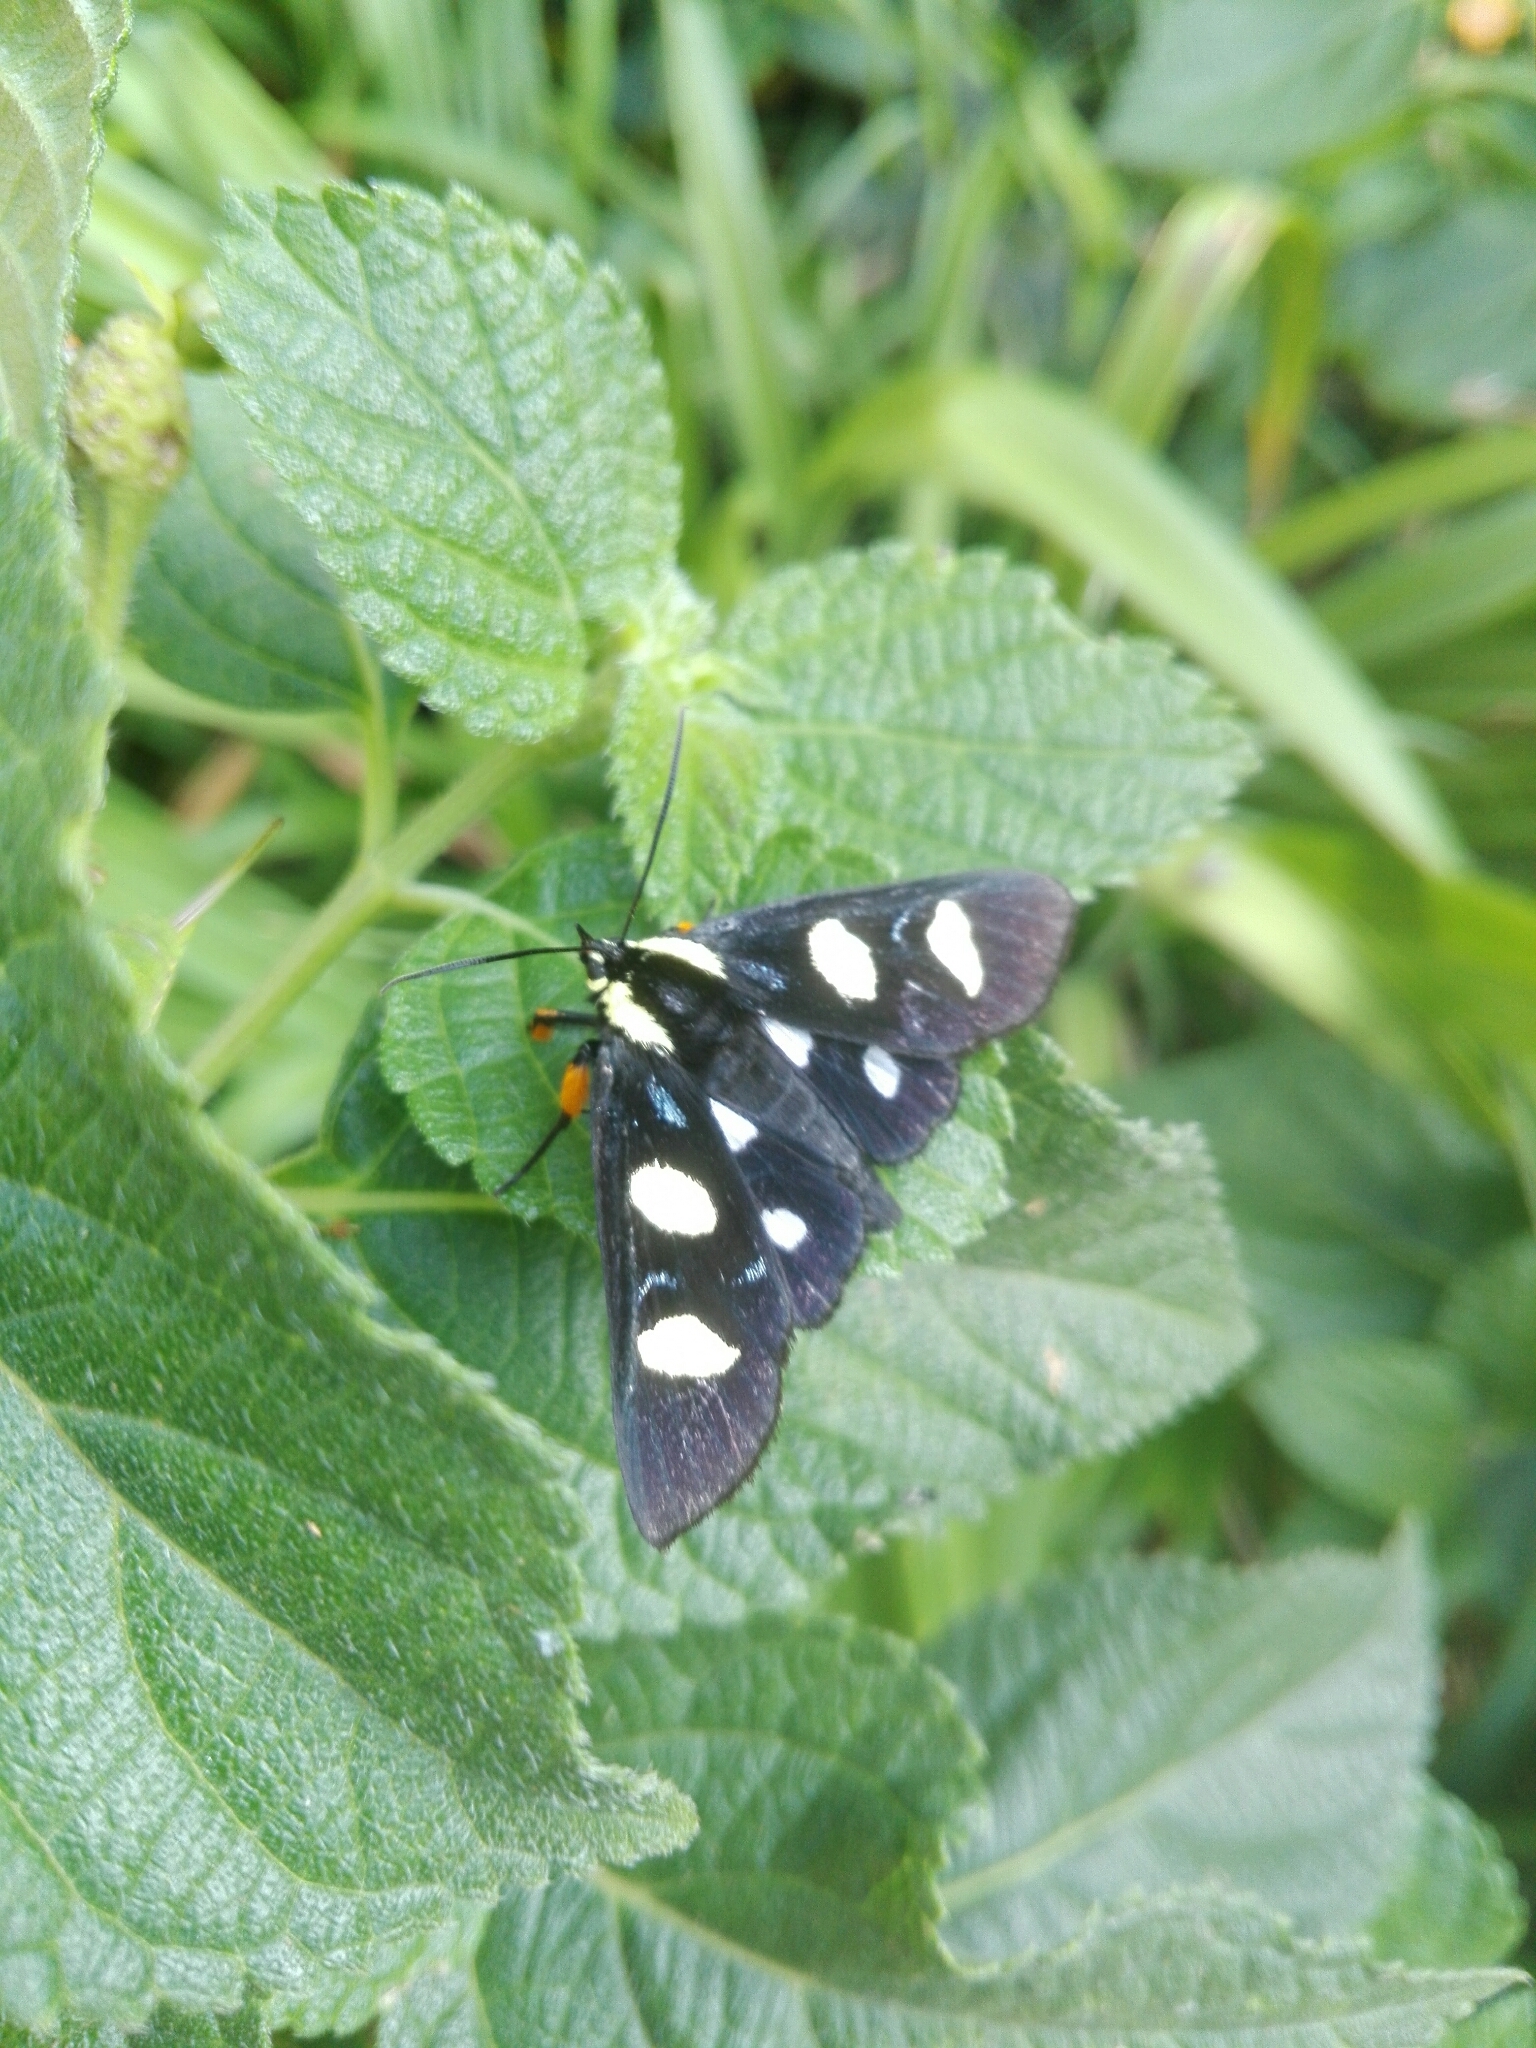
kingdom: Animalia
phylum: Arthropoda
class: Insecta
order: Lepidoptera
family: Noctuidae
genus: Alypia
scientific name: Alypia disparata
